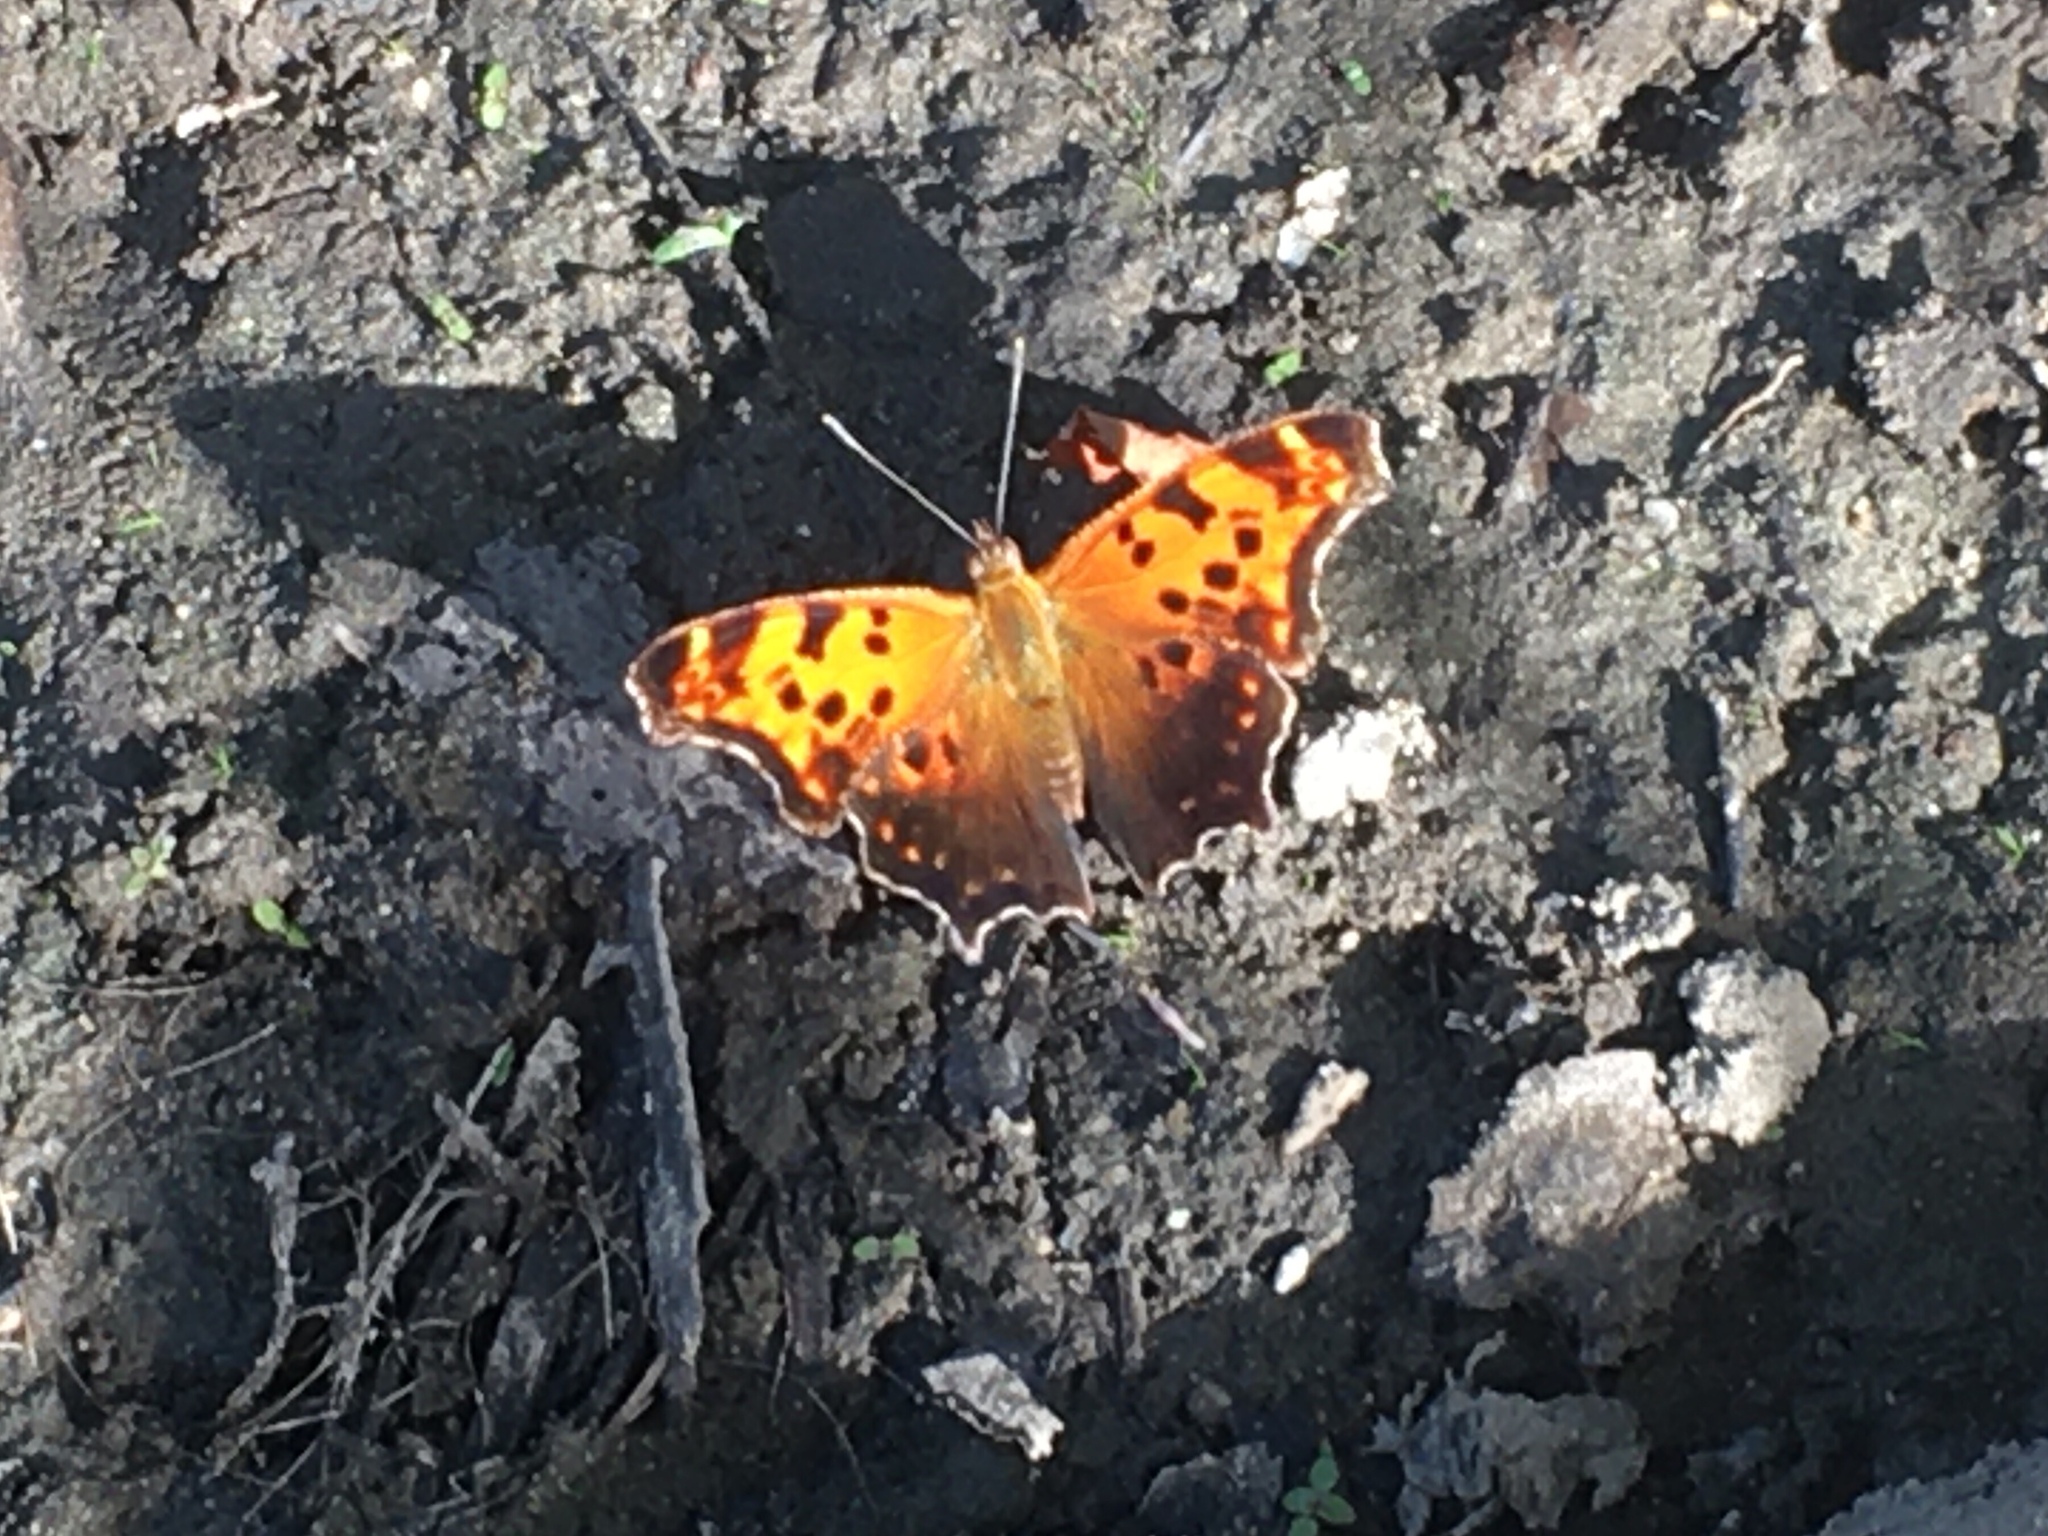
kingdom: Animalia
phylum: Arthropoda
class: Insecta
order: Lepidoptera
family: Nymphalidae
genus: Polygonia
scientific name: Polygonia interrogationis
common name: Question mark
